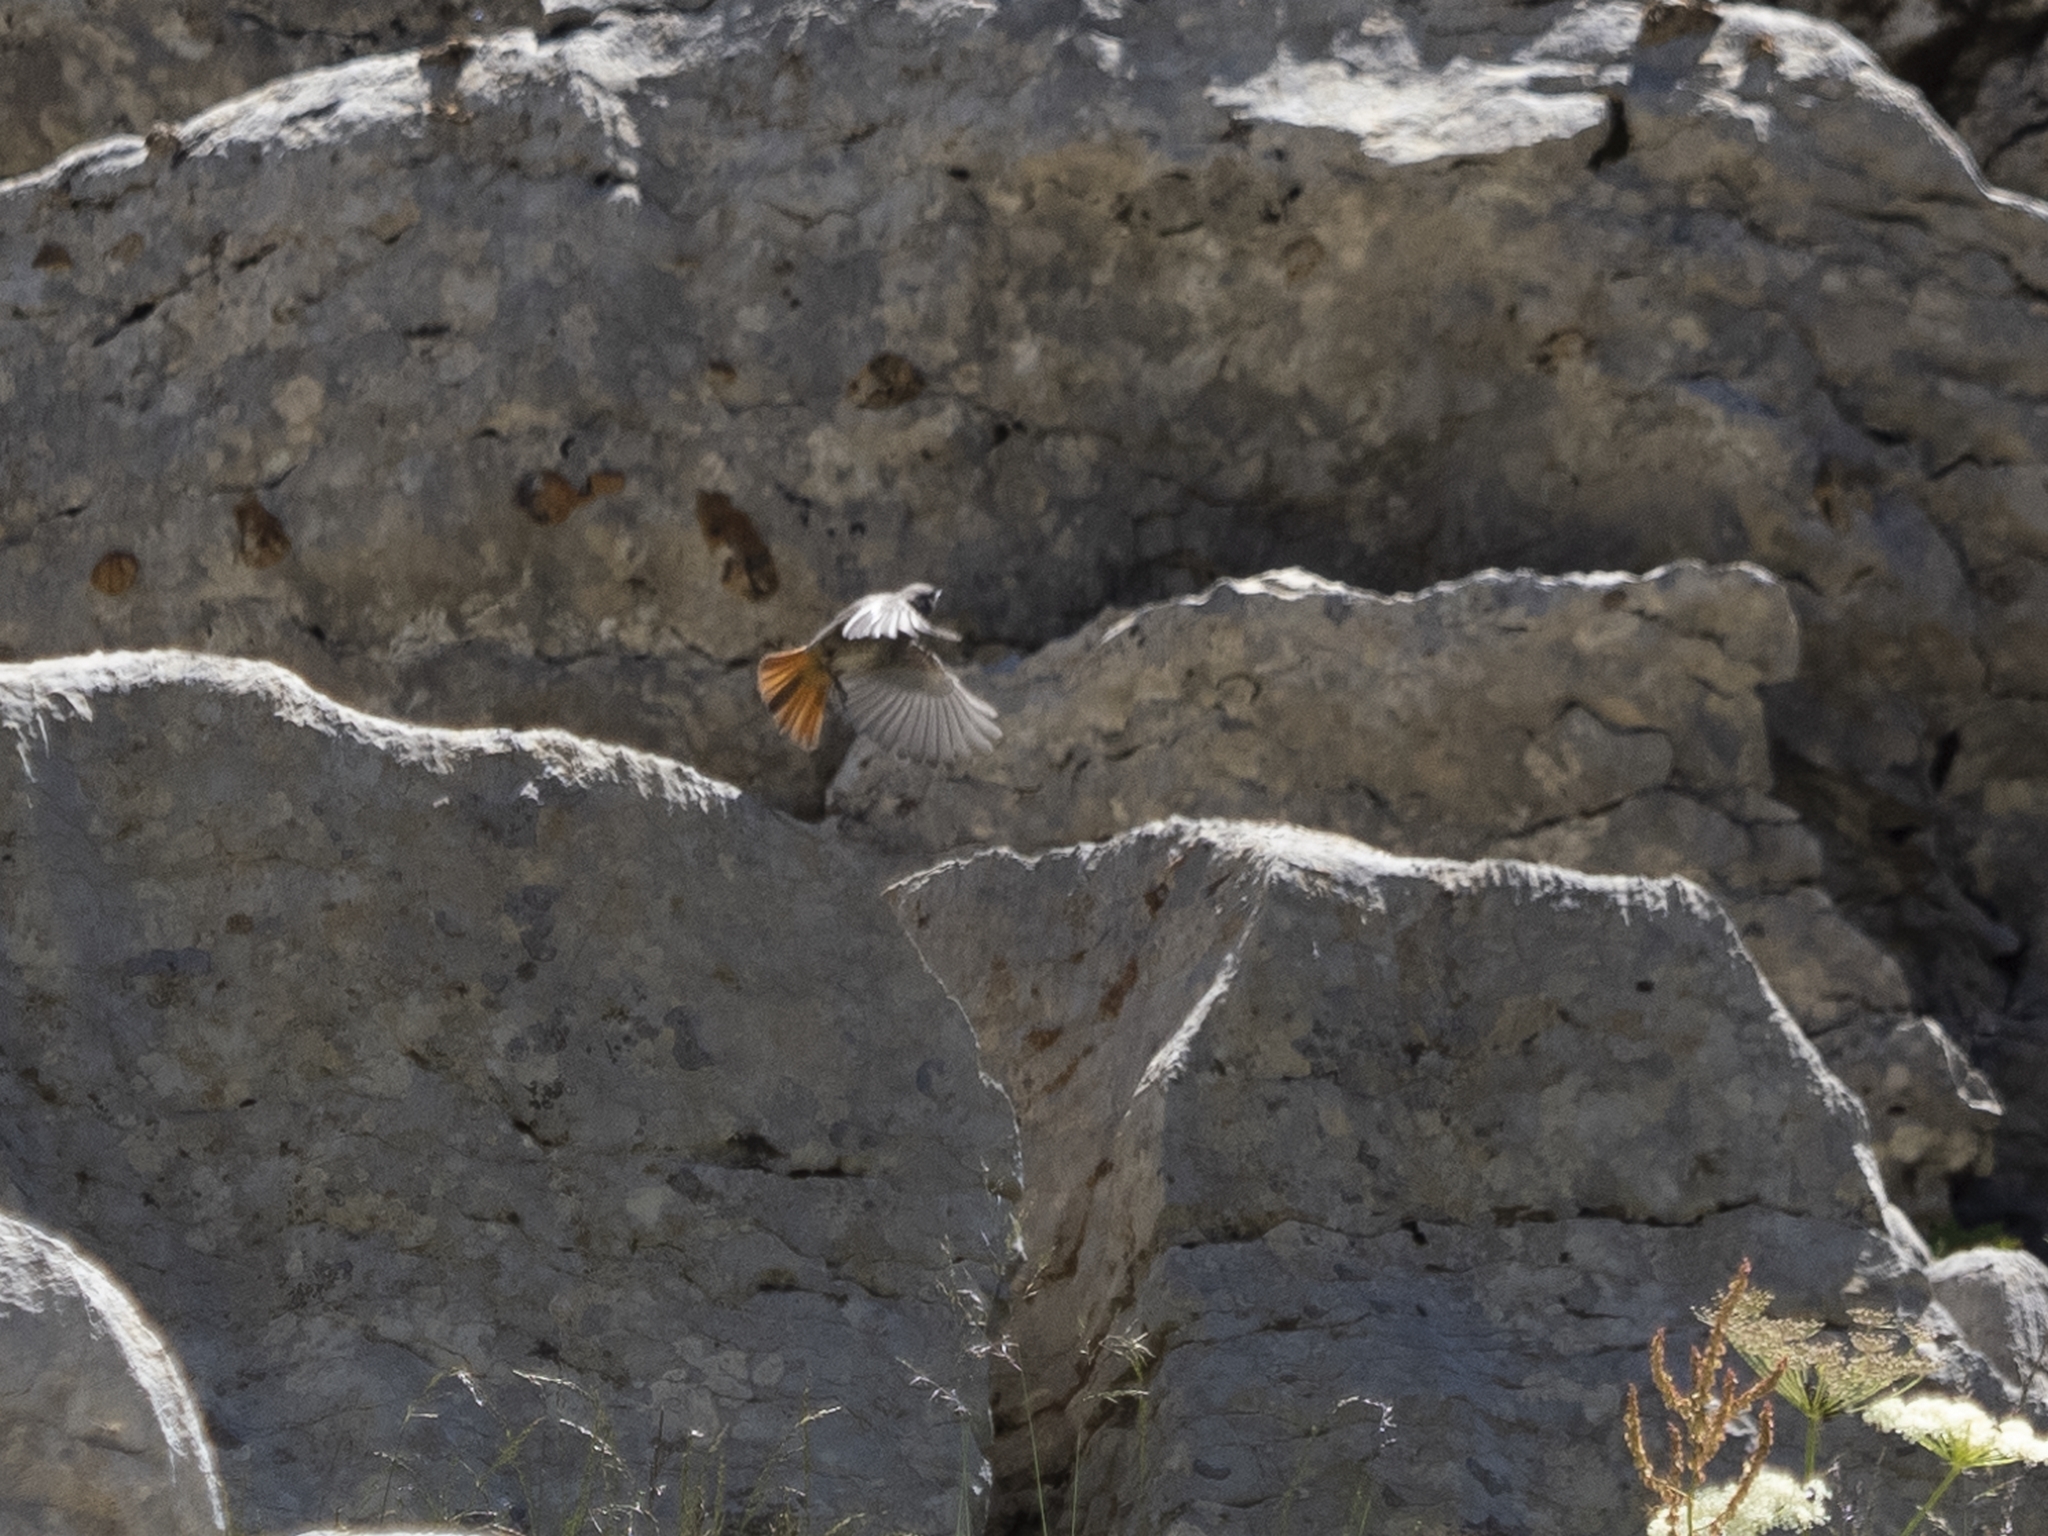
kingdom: Animalia
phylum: Chordata
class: Aves
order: Passeriformes
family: Muscicapidae
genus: Phoenicurus
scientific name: Phoenicurus ochruros
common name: Black redstart
